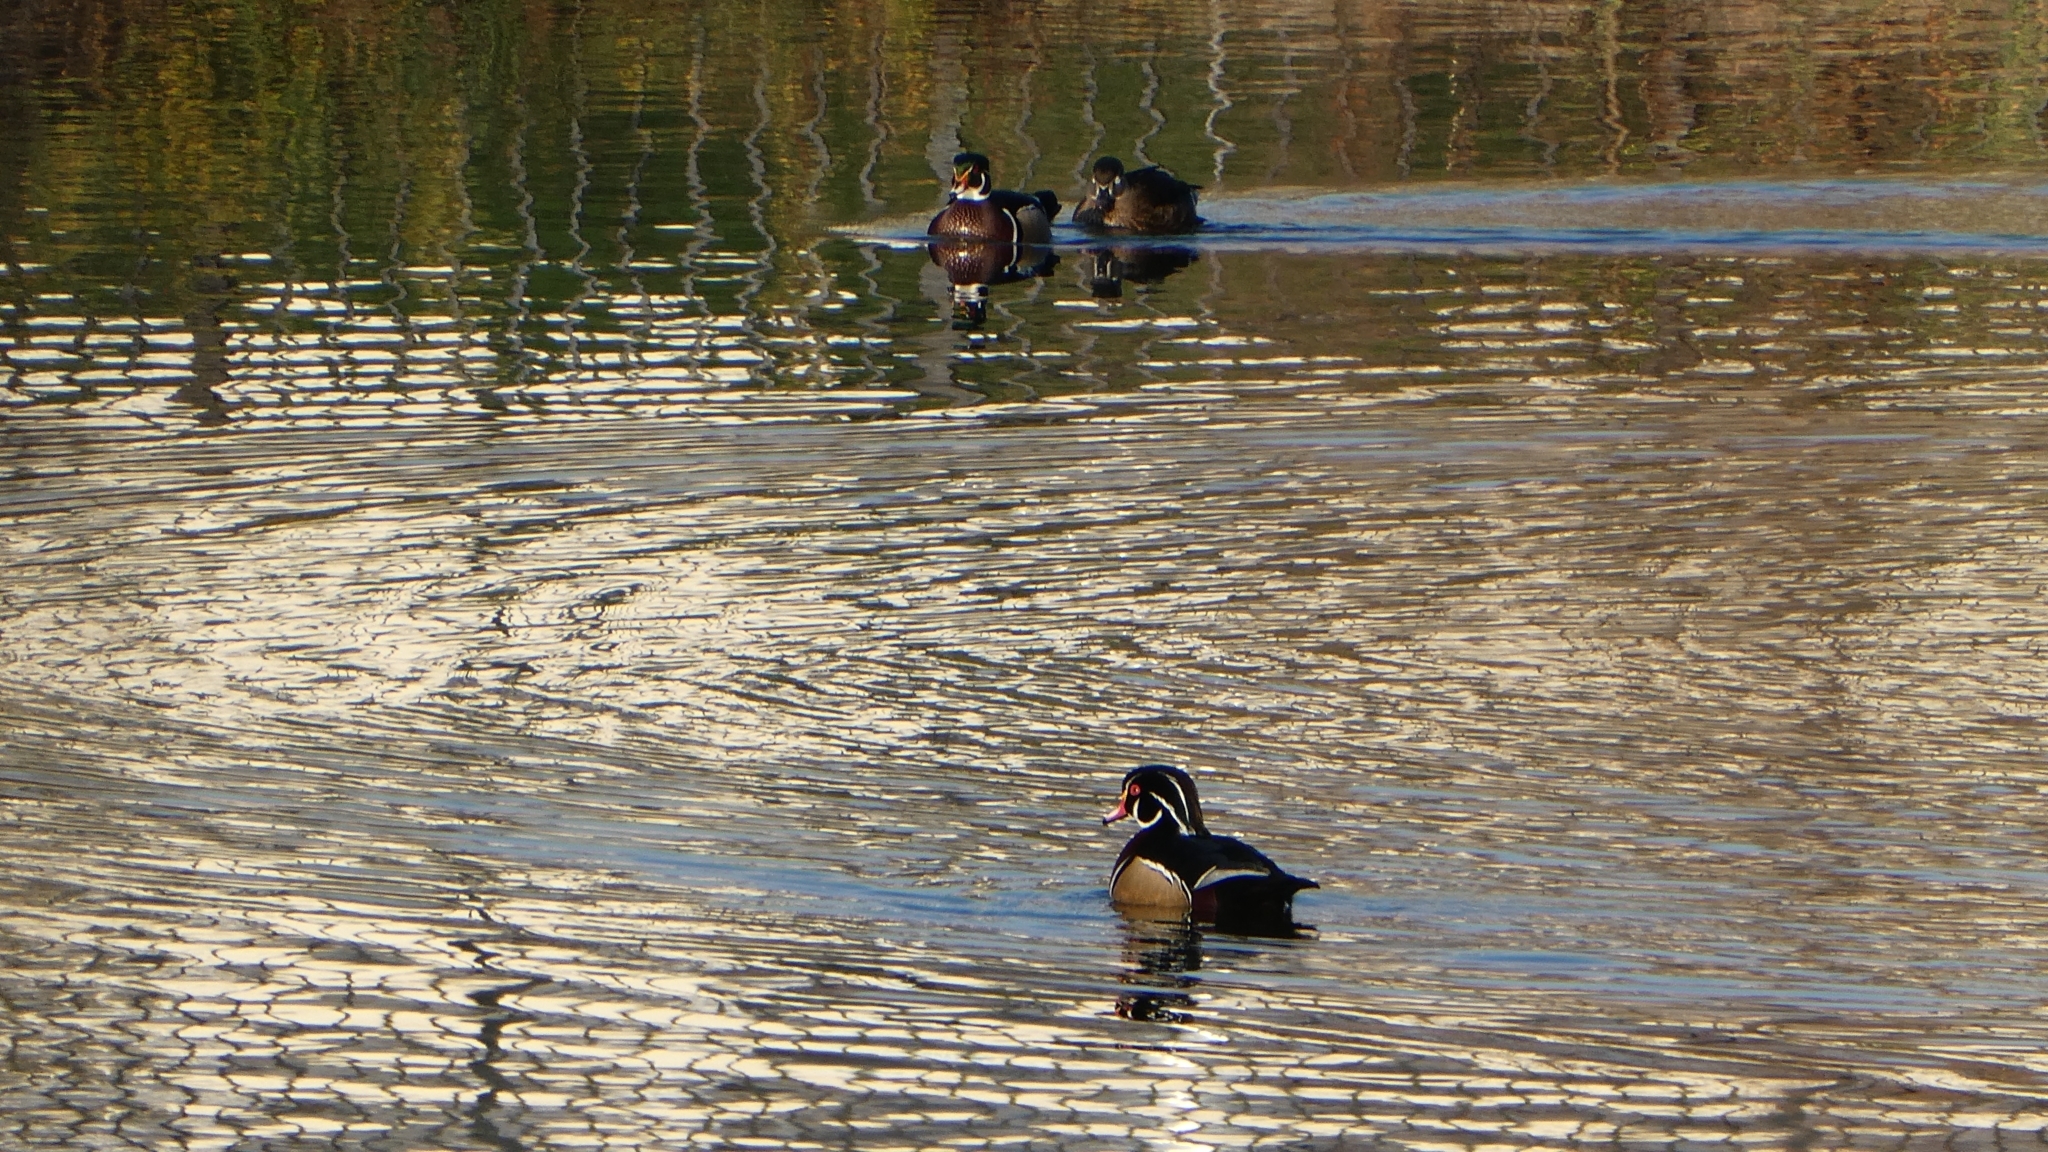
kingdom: Animalia
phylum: Chordata
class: Aves
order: Anseriformes
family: Anatidae
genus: Aix
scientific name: Aix sponsa
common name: Wood duck
